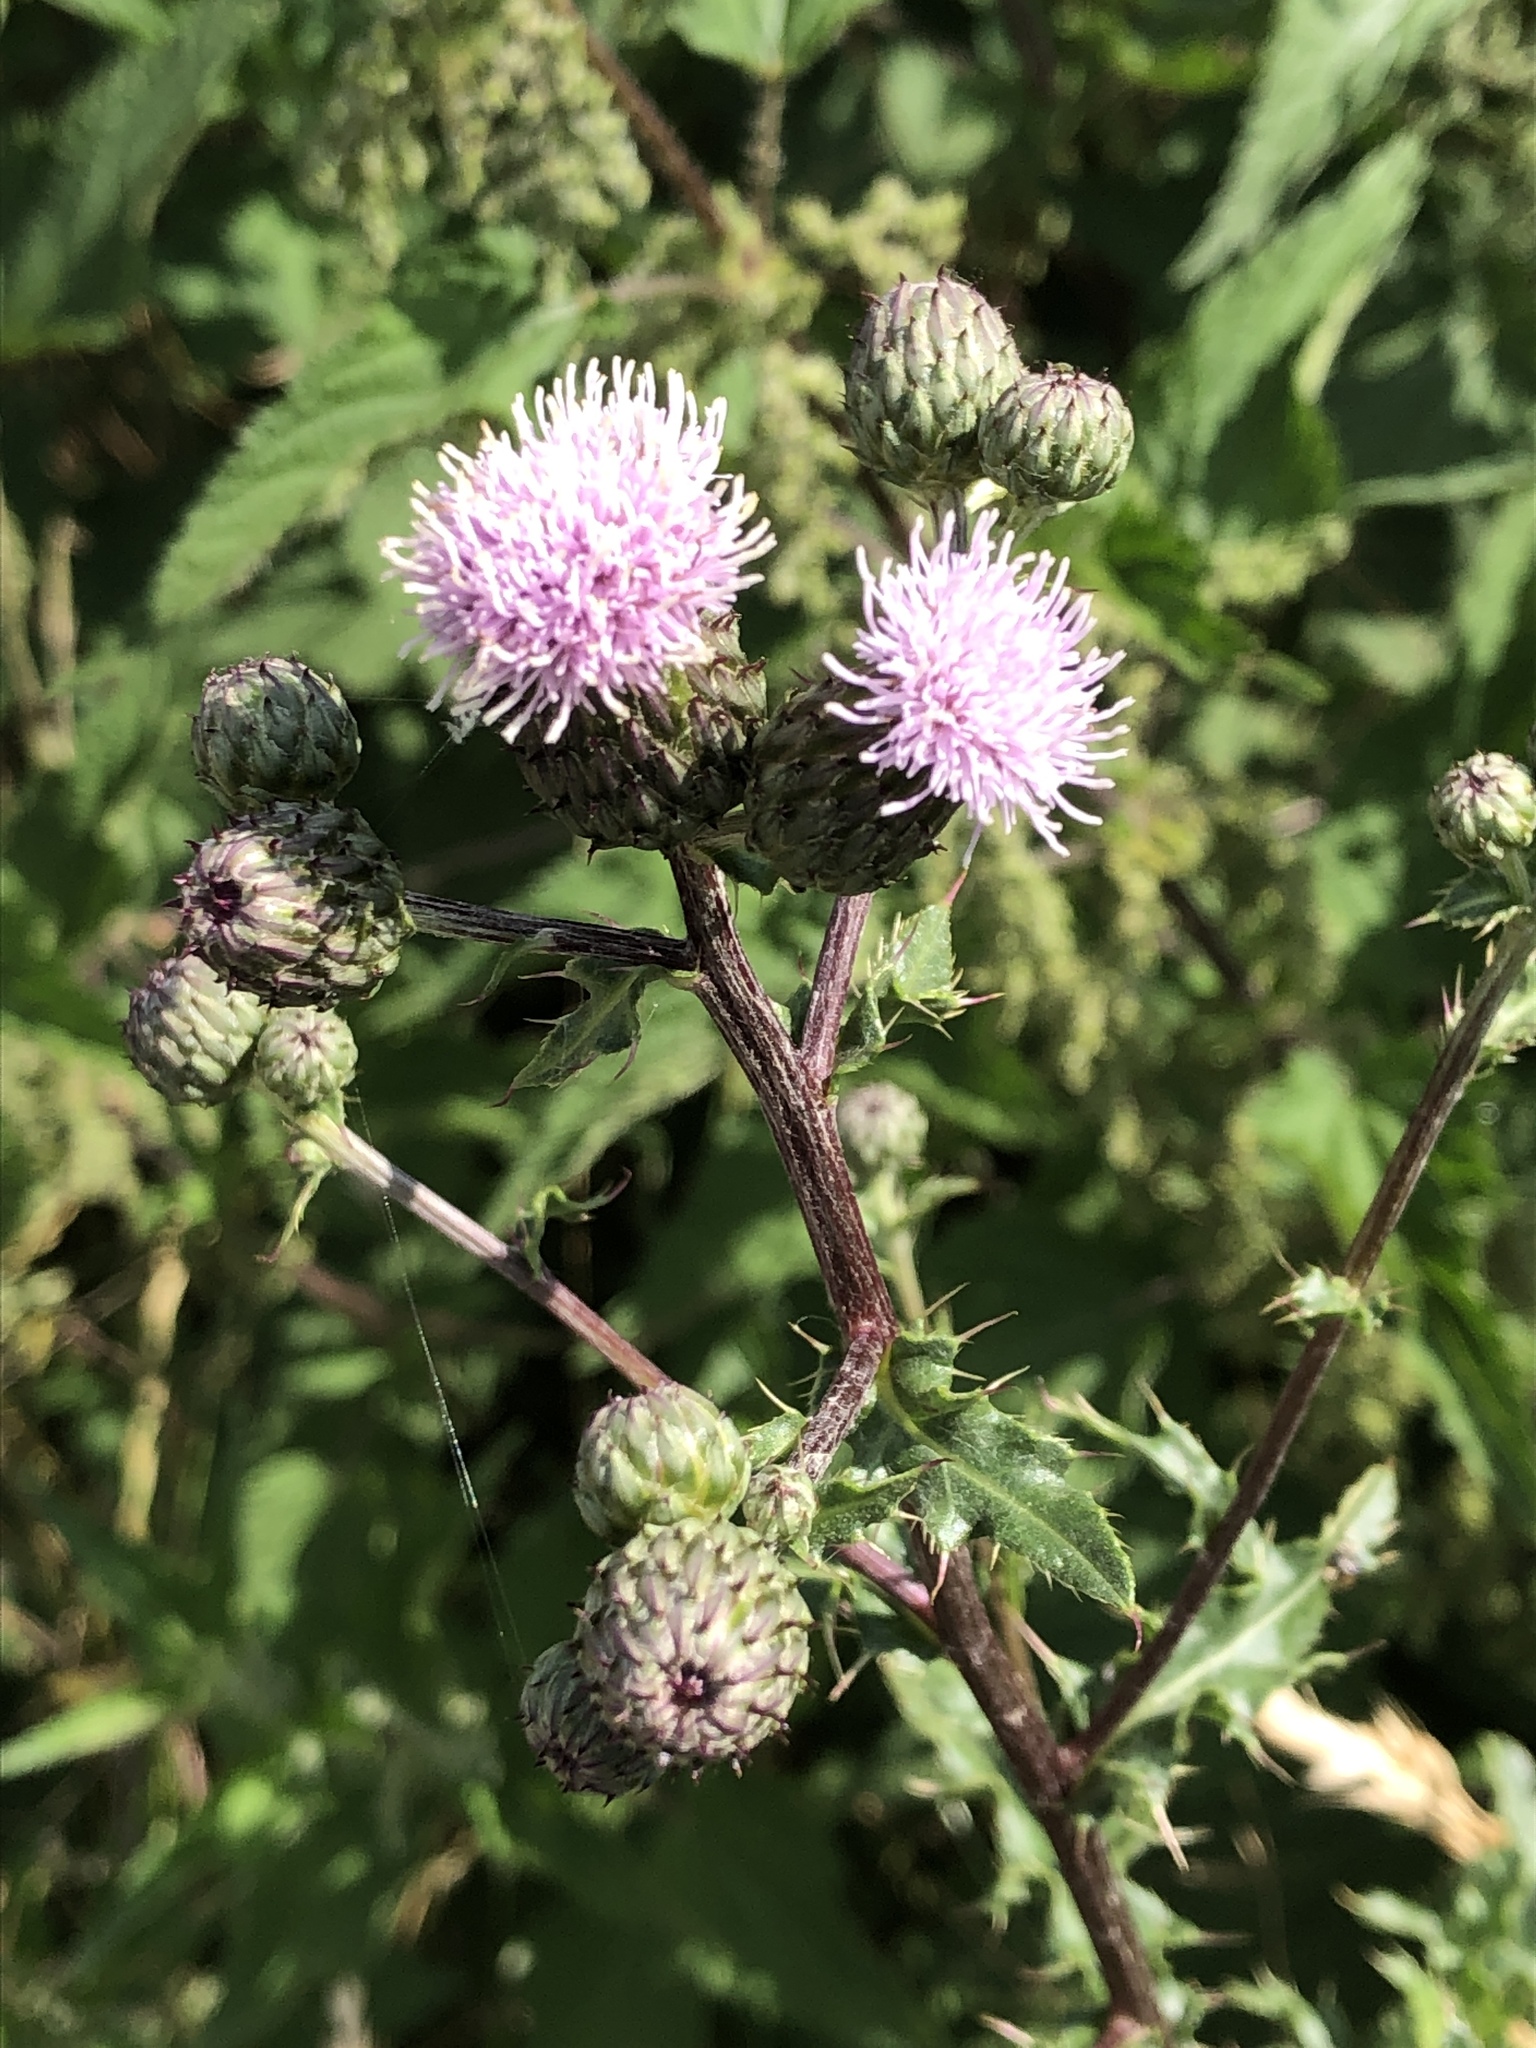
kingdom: Plantae
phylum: Tracheophyta
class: Magnoliopsida
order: Asterales
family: Asteraceae
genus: Cirsium
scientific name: Cirsium arvense
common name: Creeping thistle
